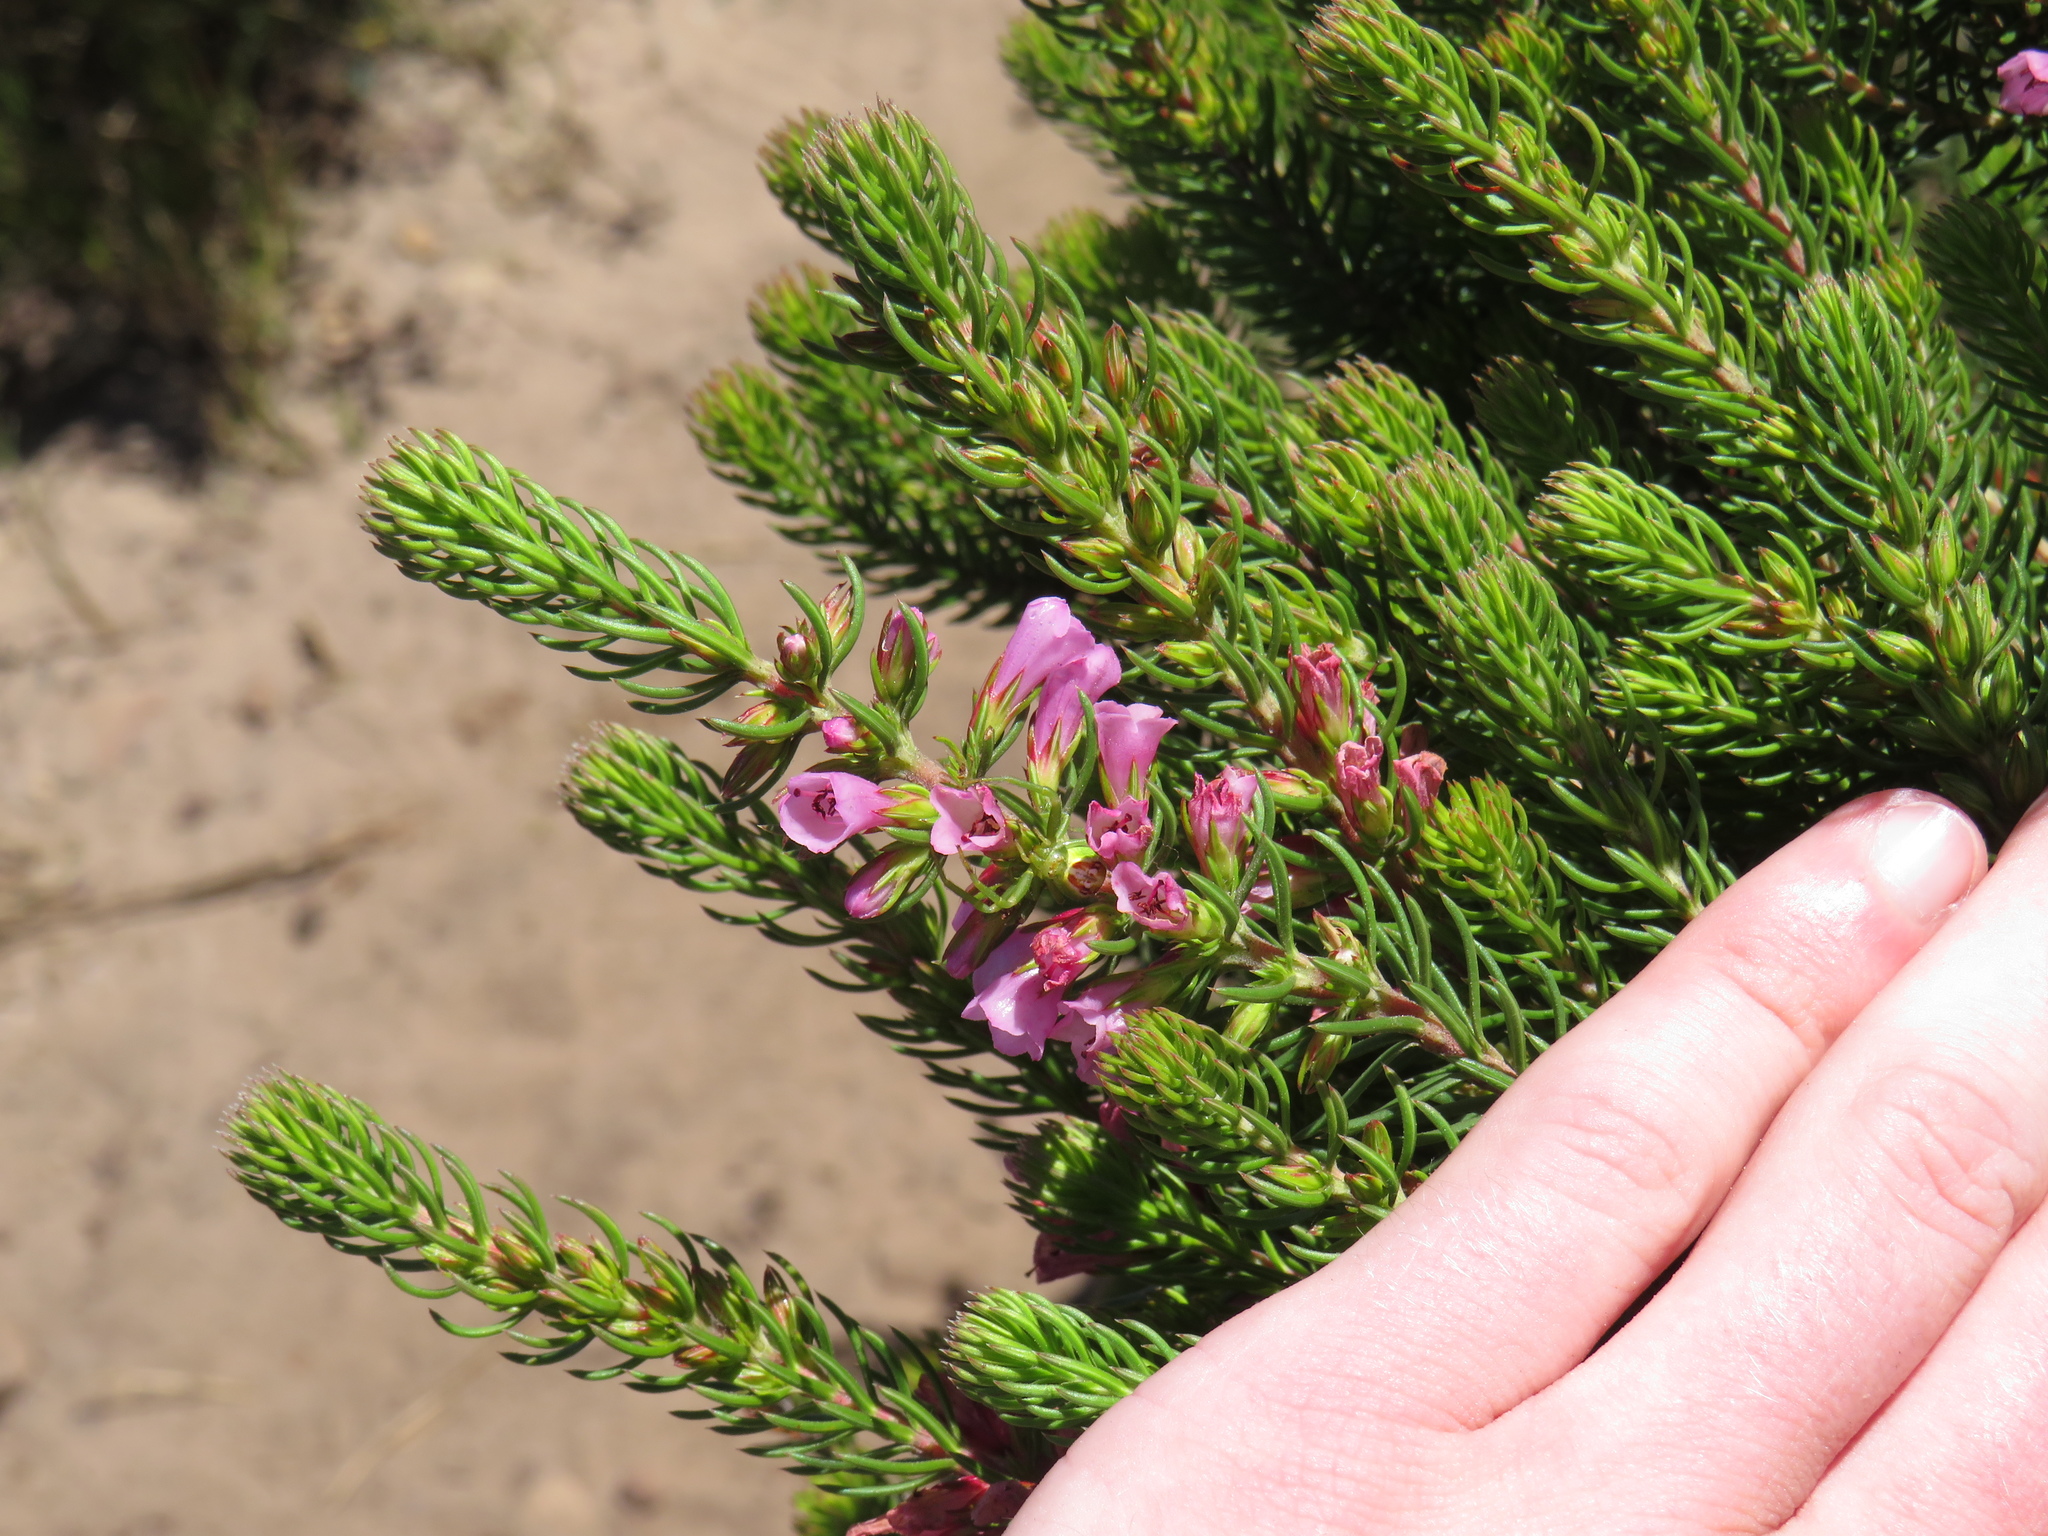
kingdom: Plantae
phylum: Tracheophyta
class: Magnoliopsida
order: Ericales
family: Ericaceae
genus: Erica
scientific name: Erica abietina
